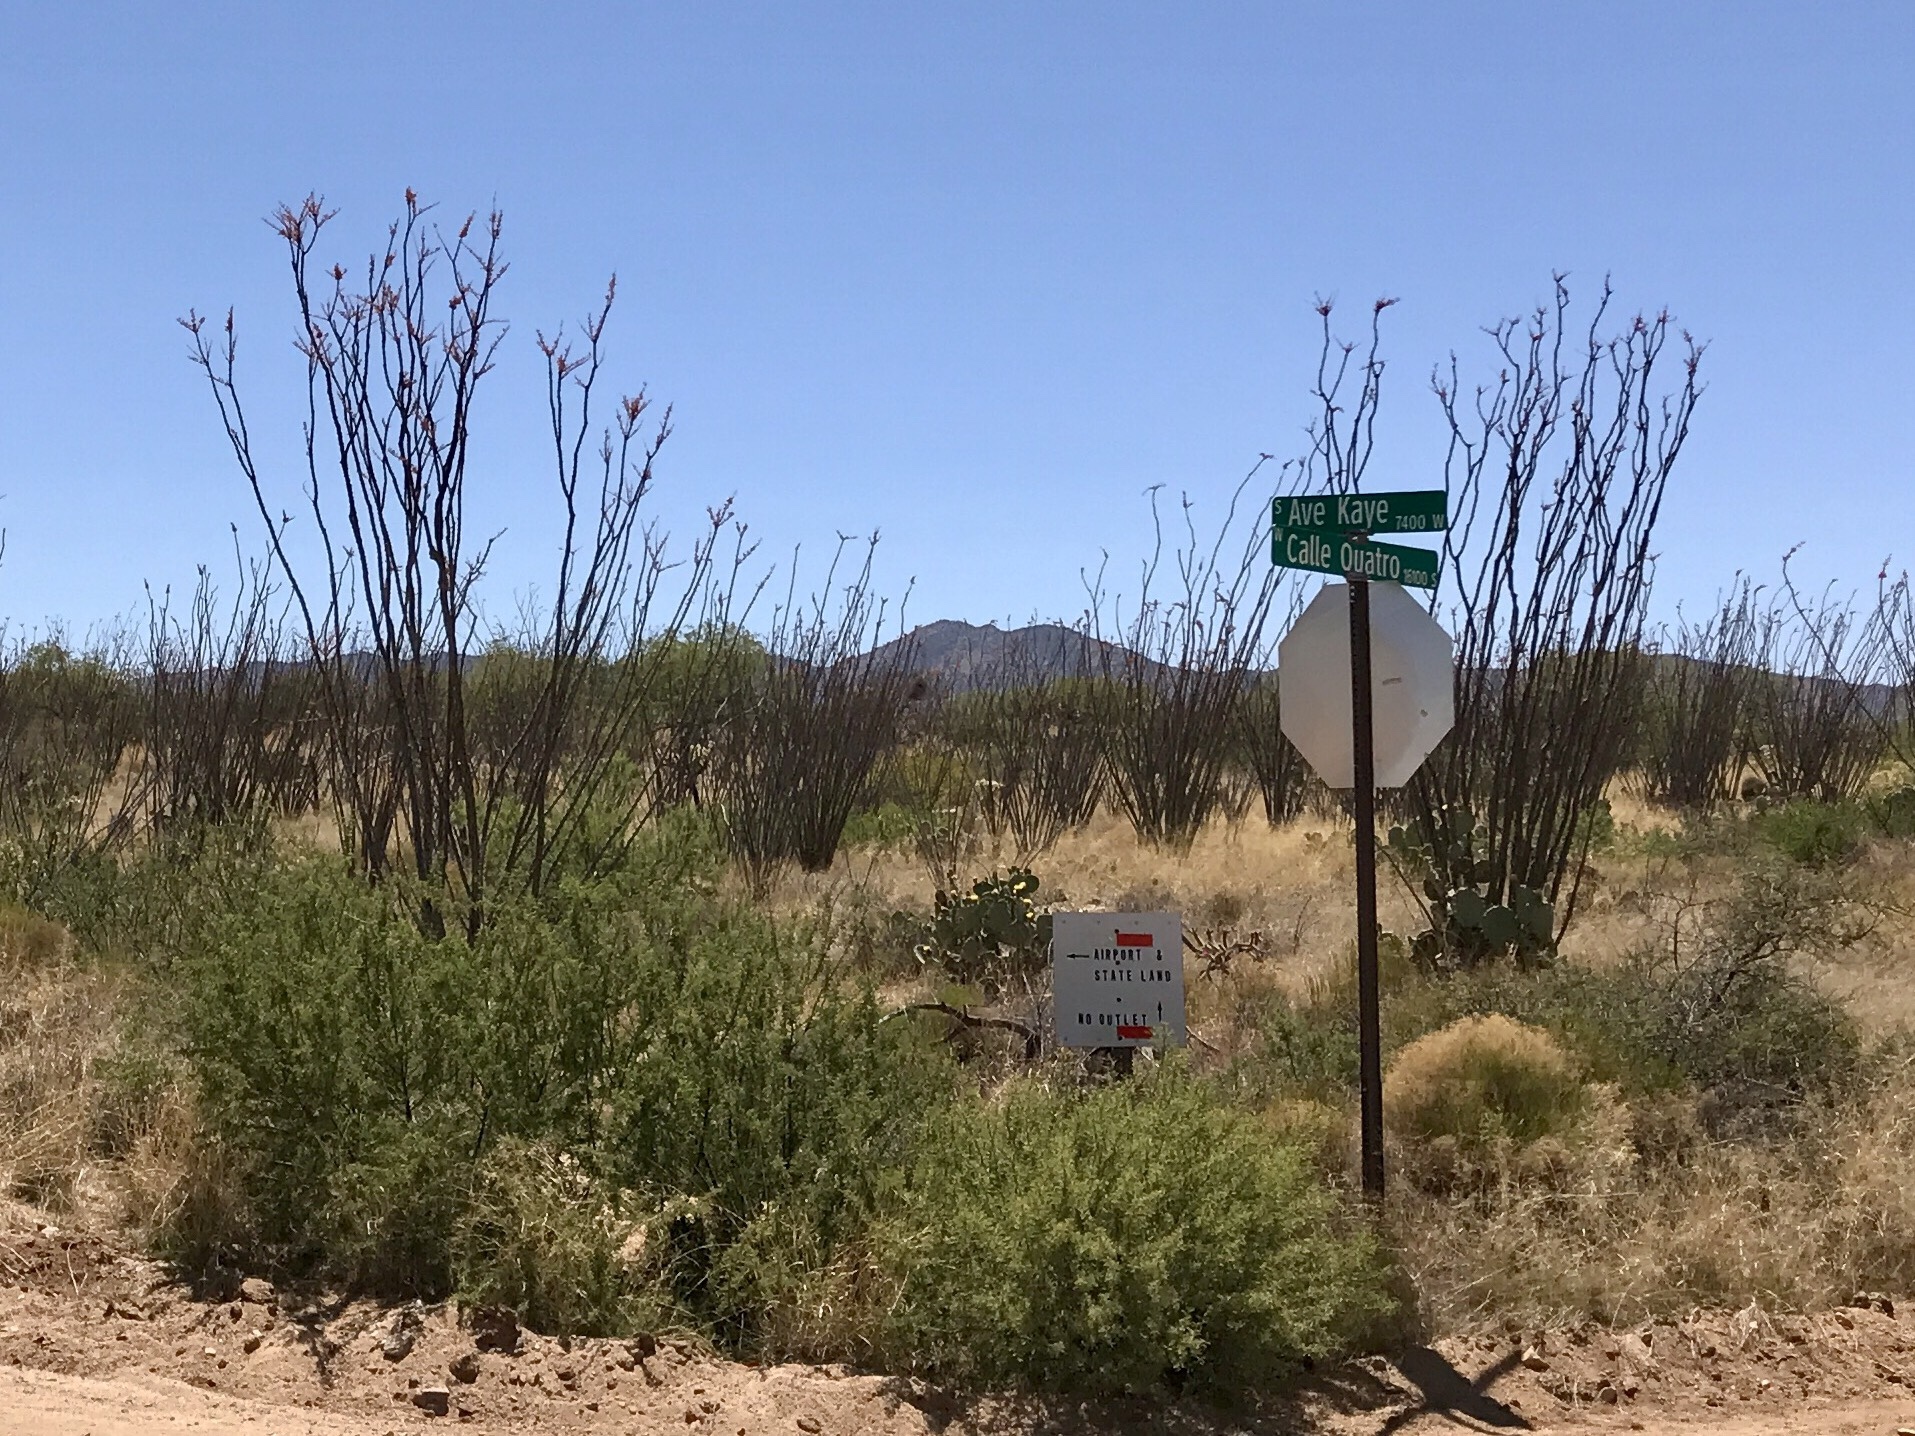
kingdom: Plantae
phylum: Tracheophyta
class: Magnoliopsida
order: Ericales
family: Fouquieriaceae
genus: Fouquieria
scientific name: Fouquieria splendens
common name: Vine-cactus
